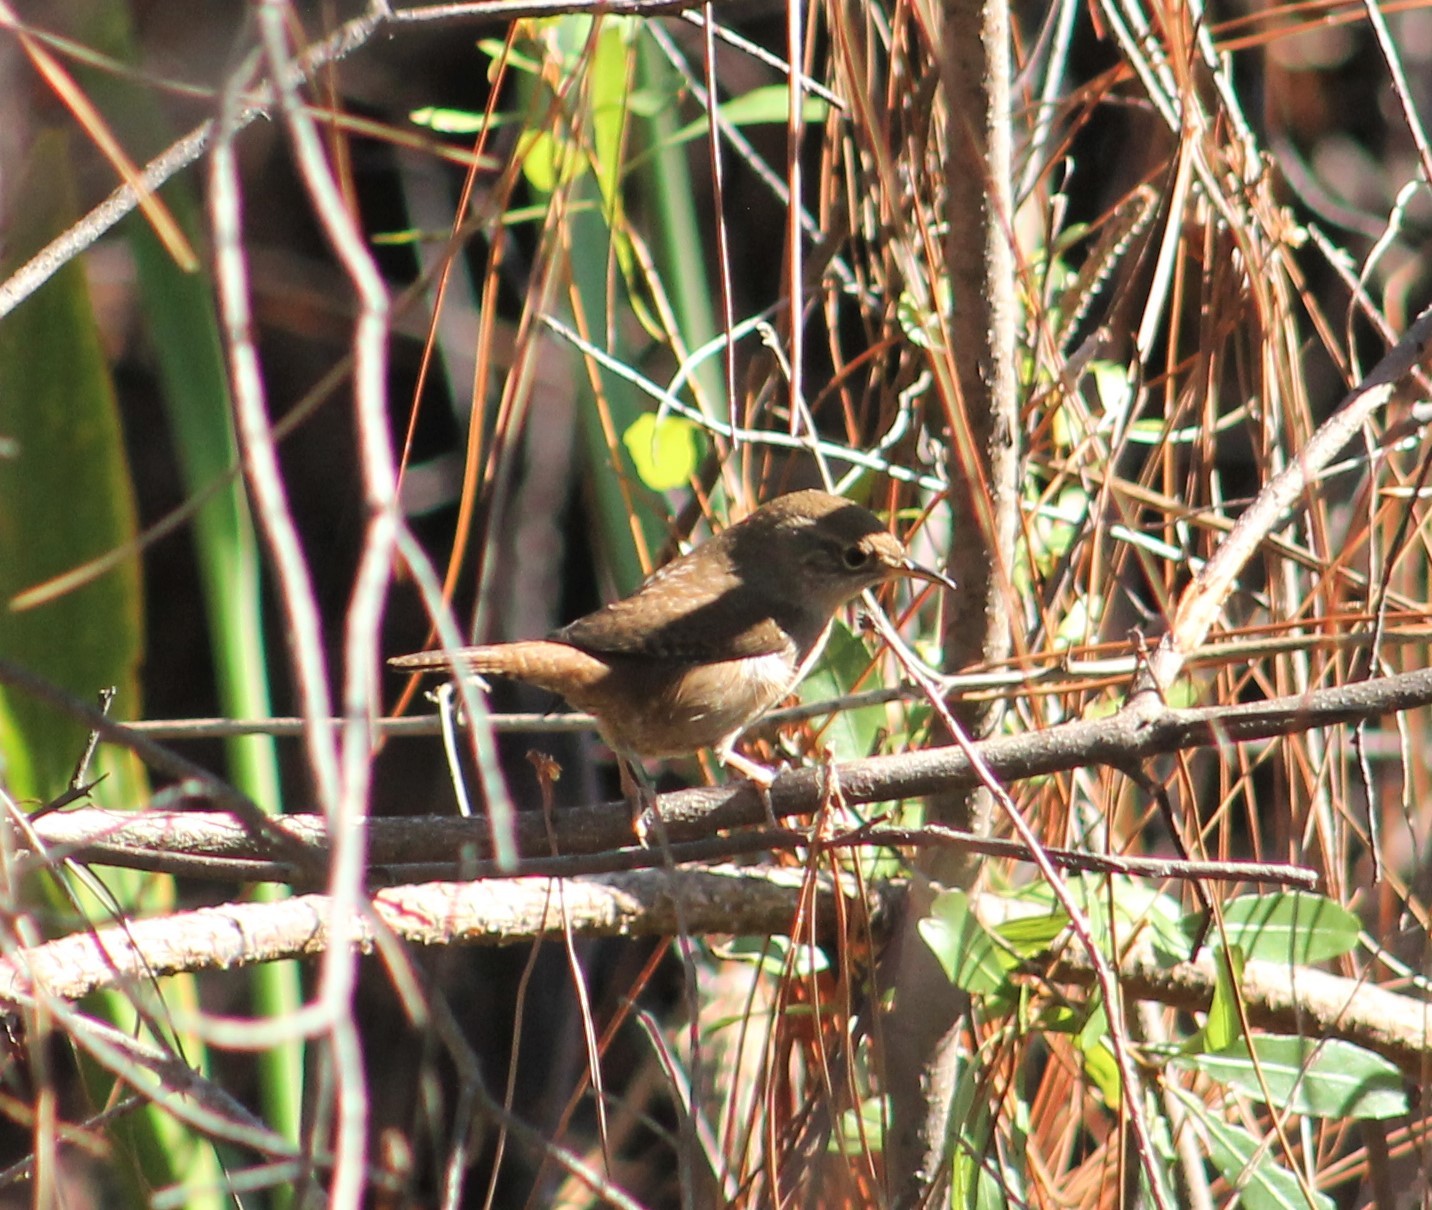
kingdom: Animalia
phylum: Chordata
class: Aves
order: Passeriformes
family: Troglodytidae
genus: Troglodytes
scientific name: Troglodytes aedon
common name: House wren
